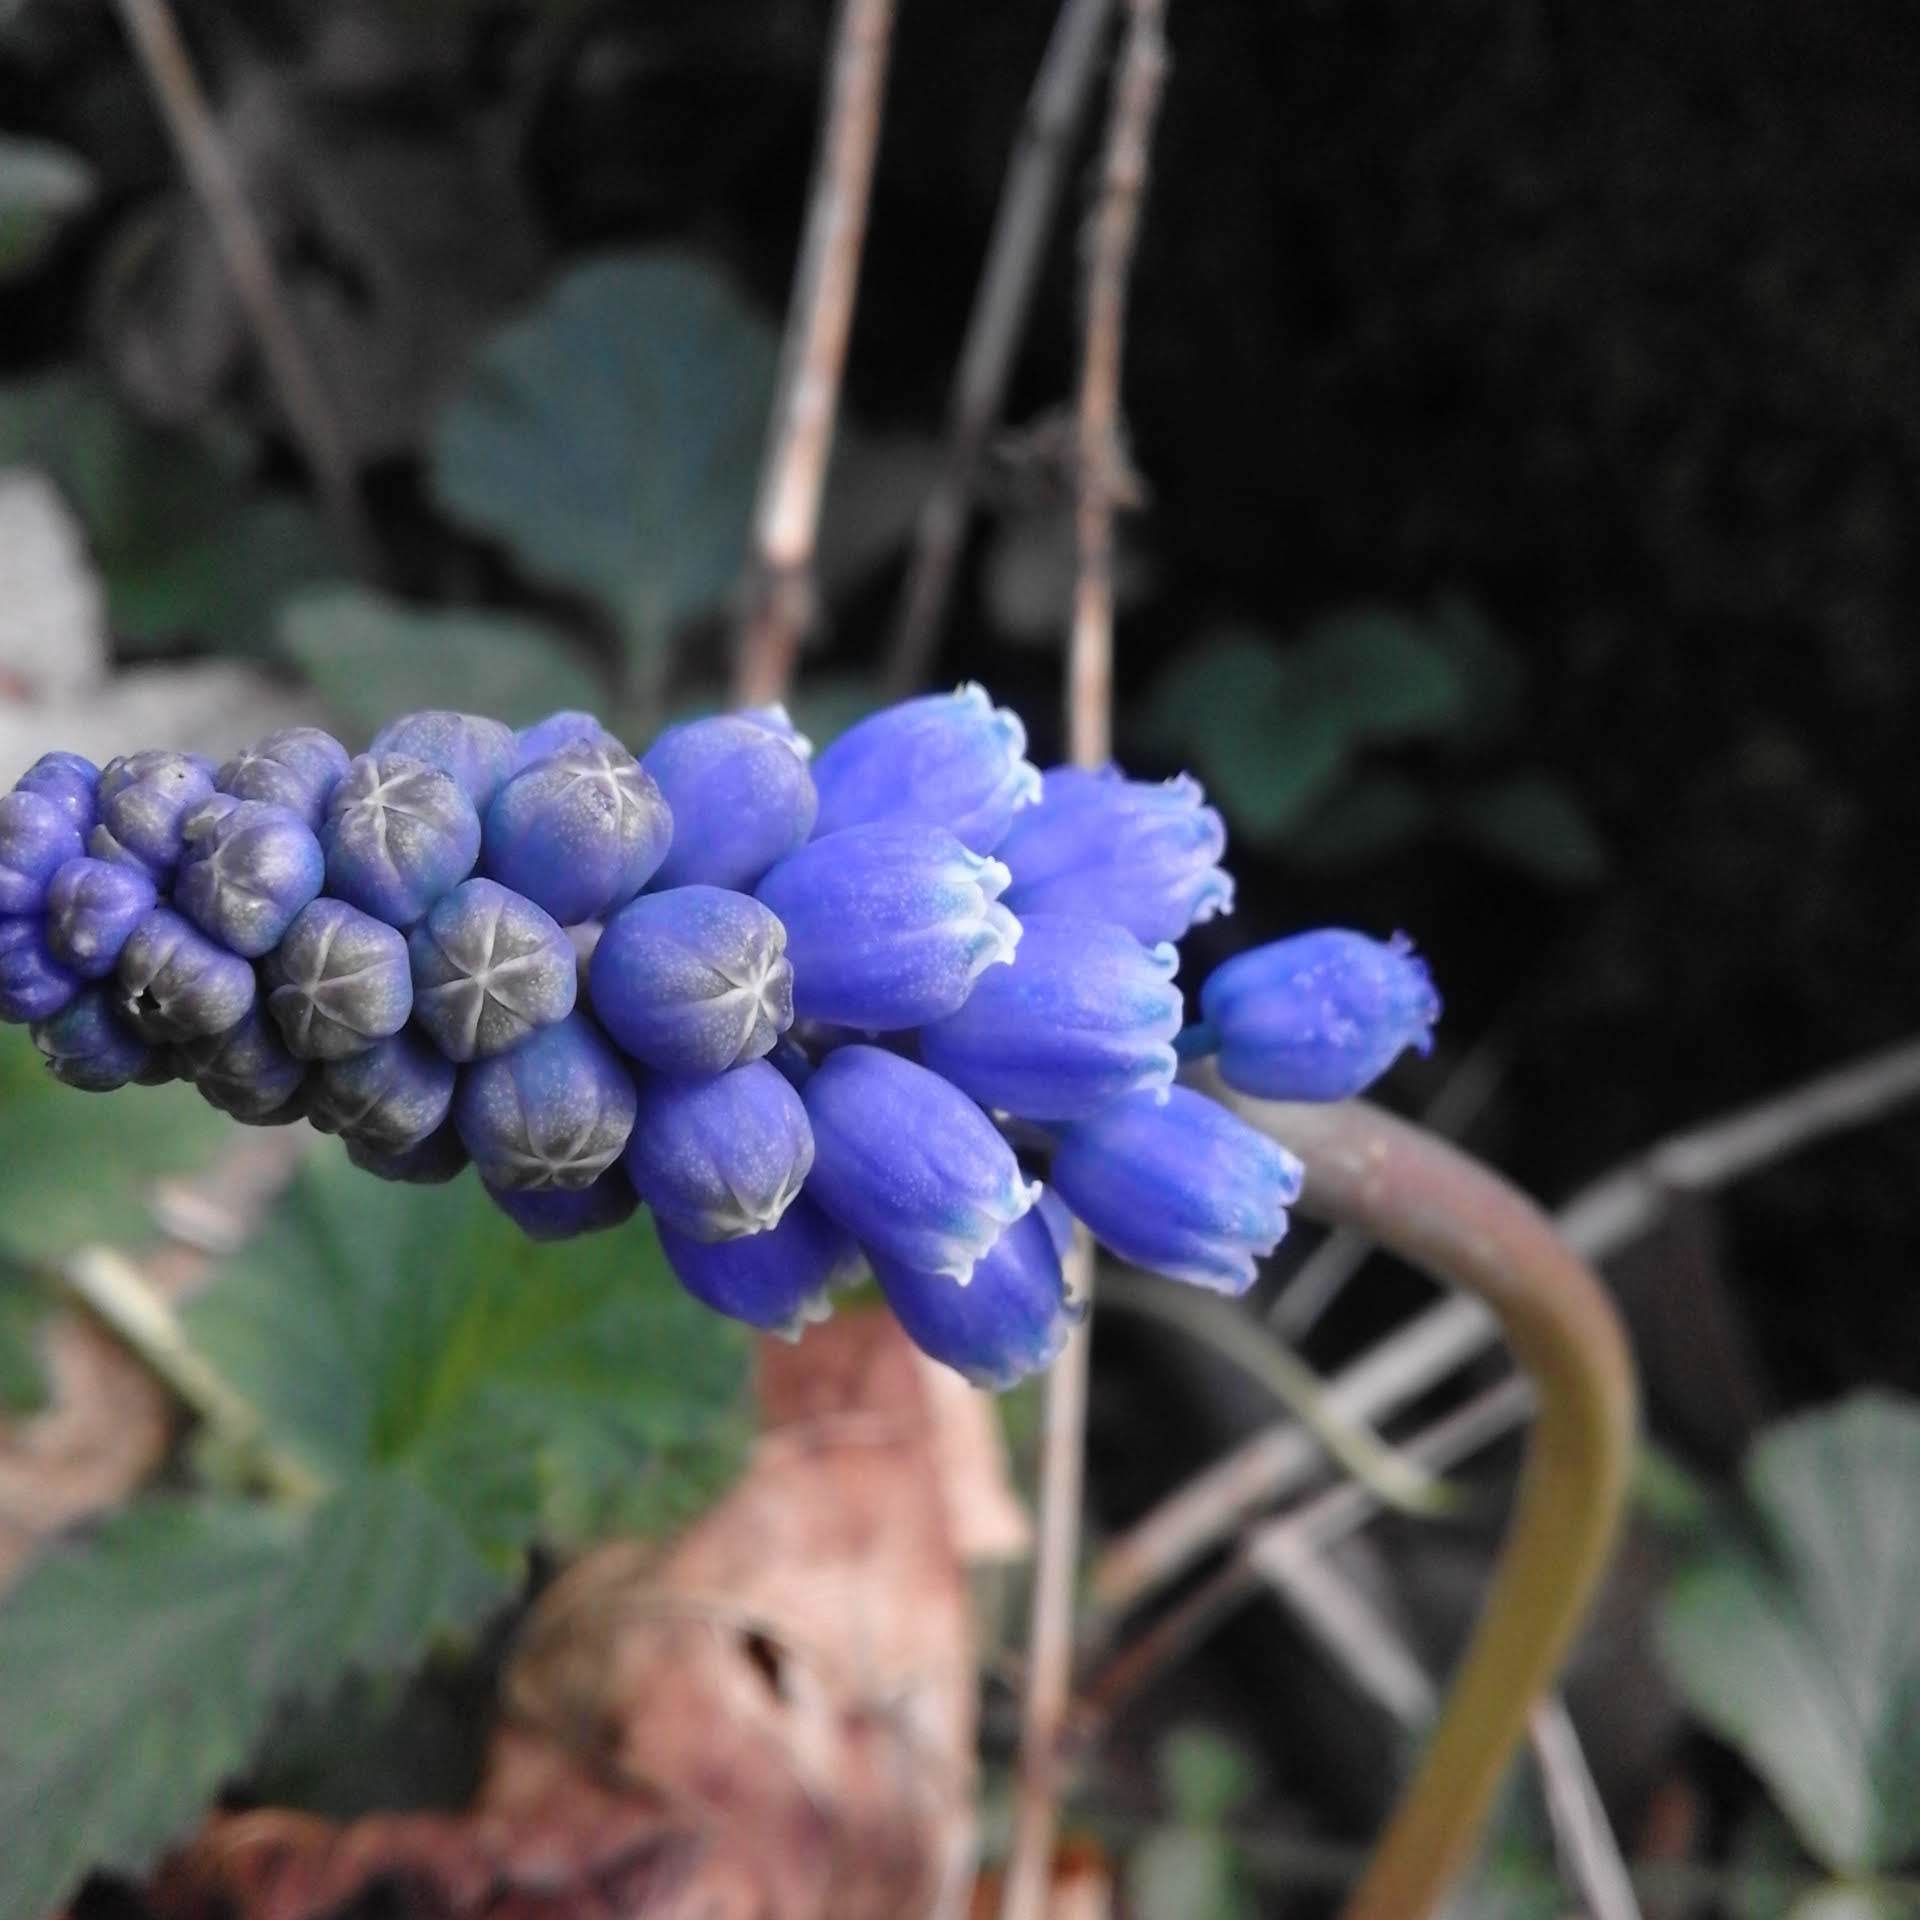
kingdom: Plantae
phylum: Tracheophyta
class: Liliopsida
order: Asparagales
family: Asparagaceae
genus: Muscari
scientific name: Muscari armeniacum
